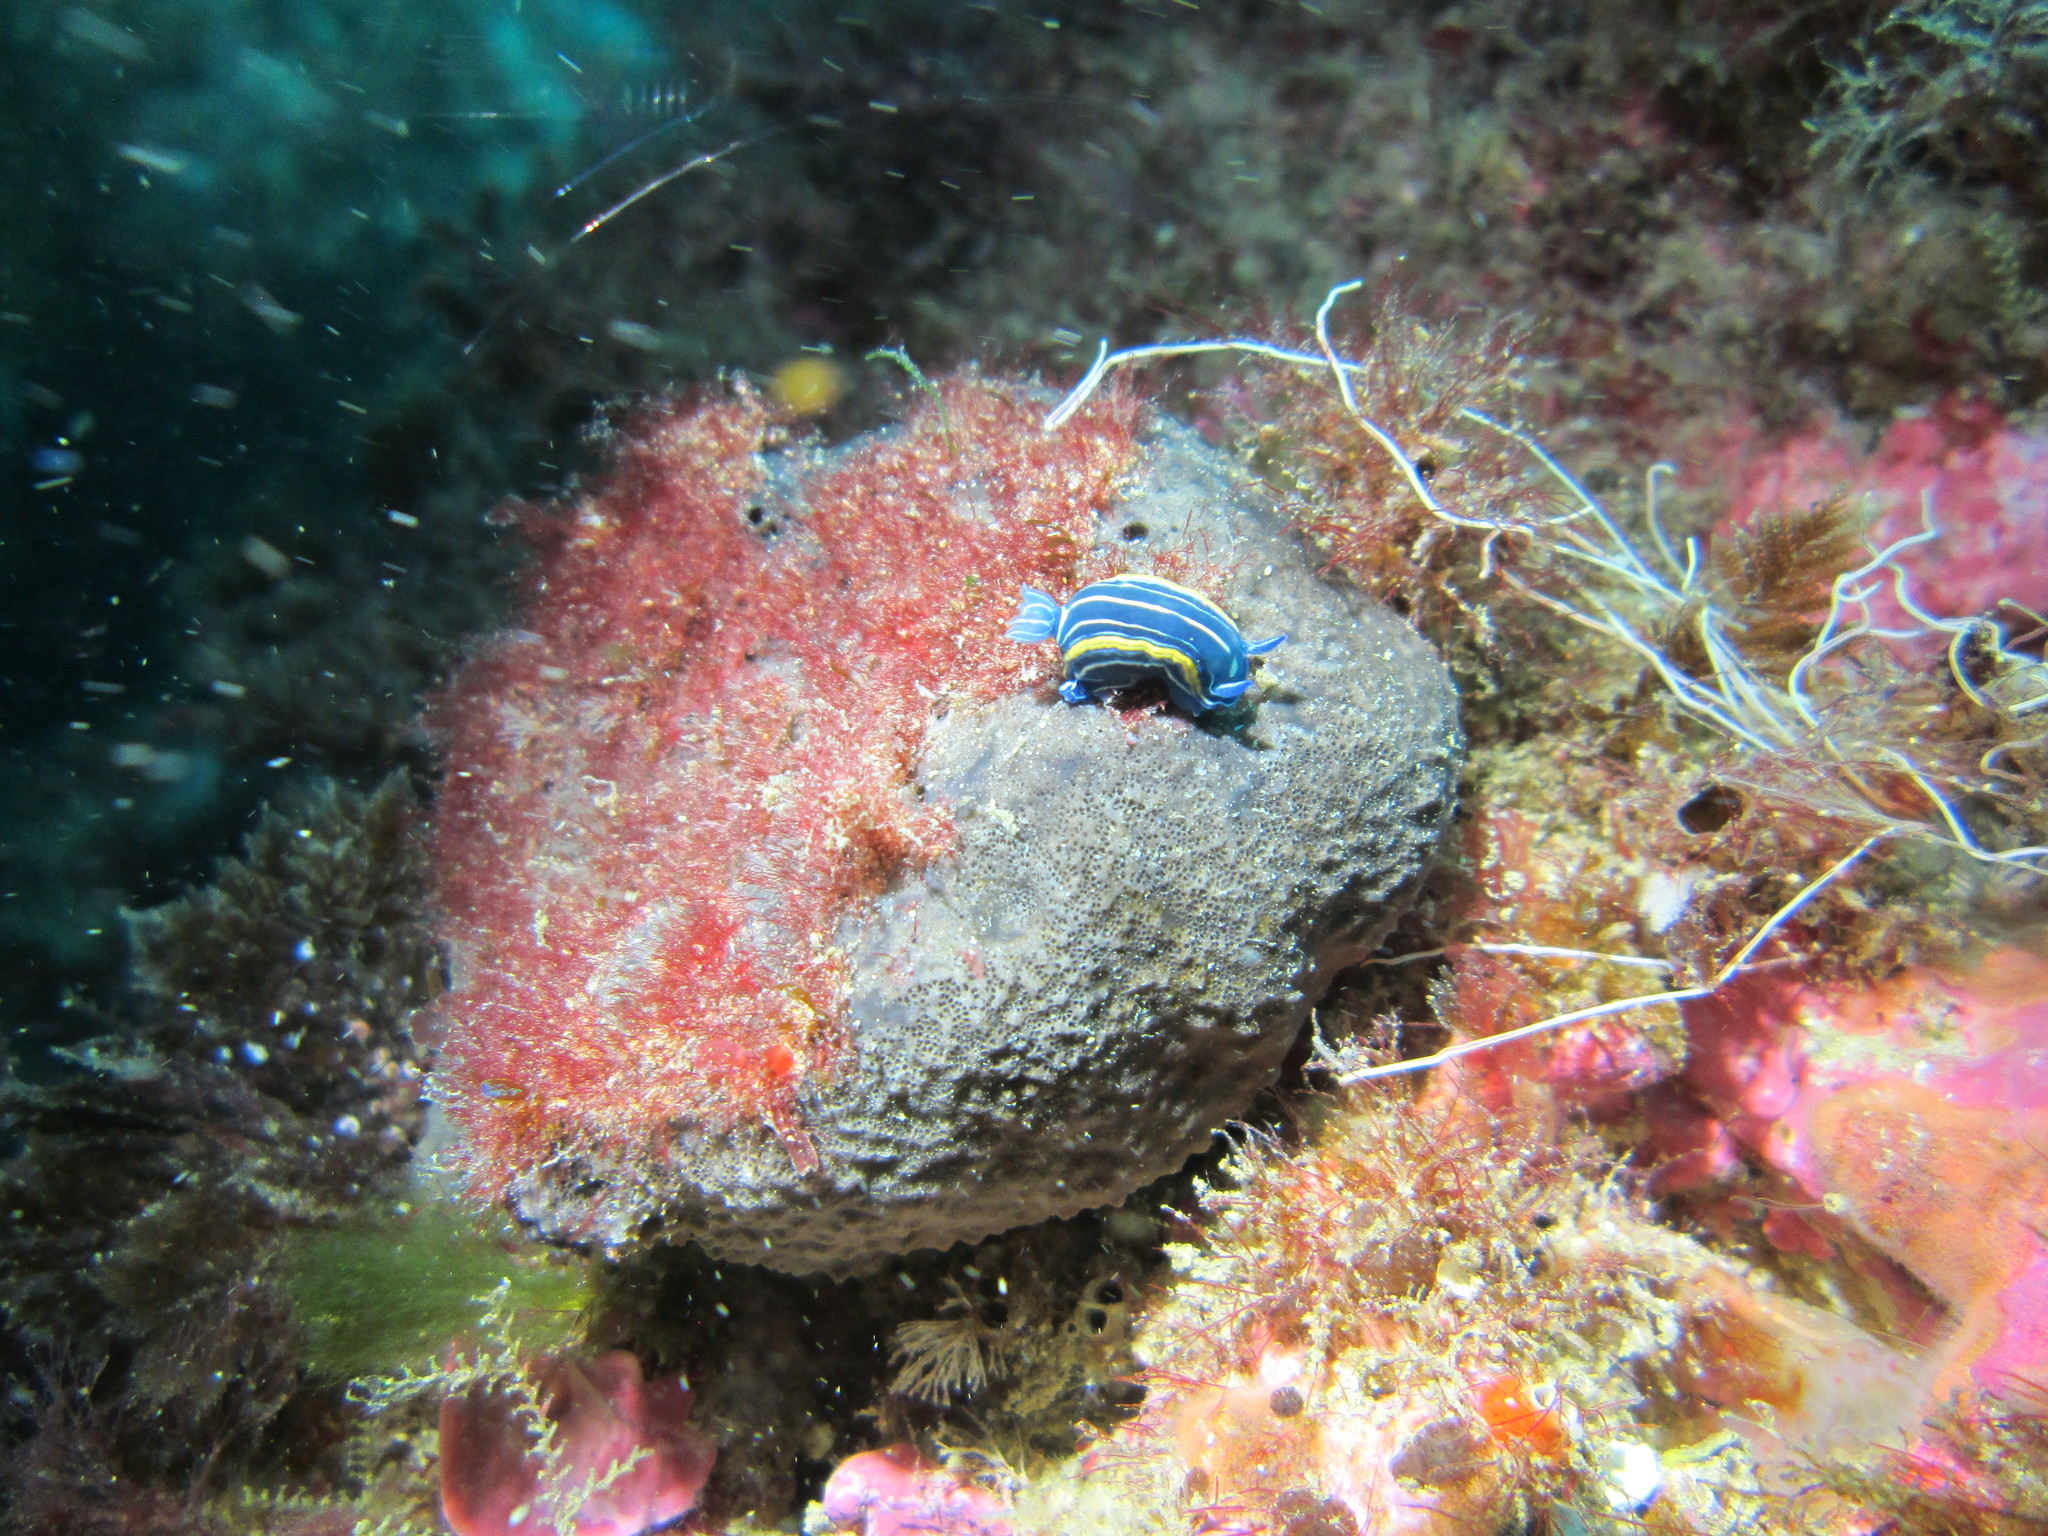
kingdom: Animalia
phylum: Mollusca
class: Gastropoda
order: Nudibranchia
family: Chromodorididae
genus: Felimare
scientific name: Felimare villafranca
